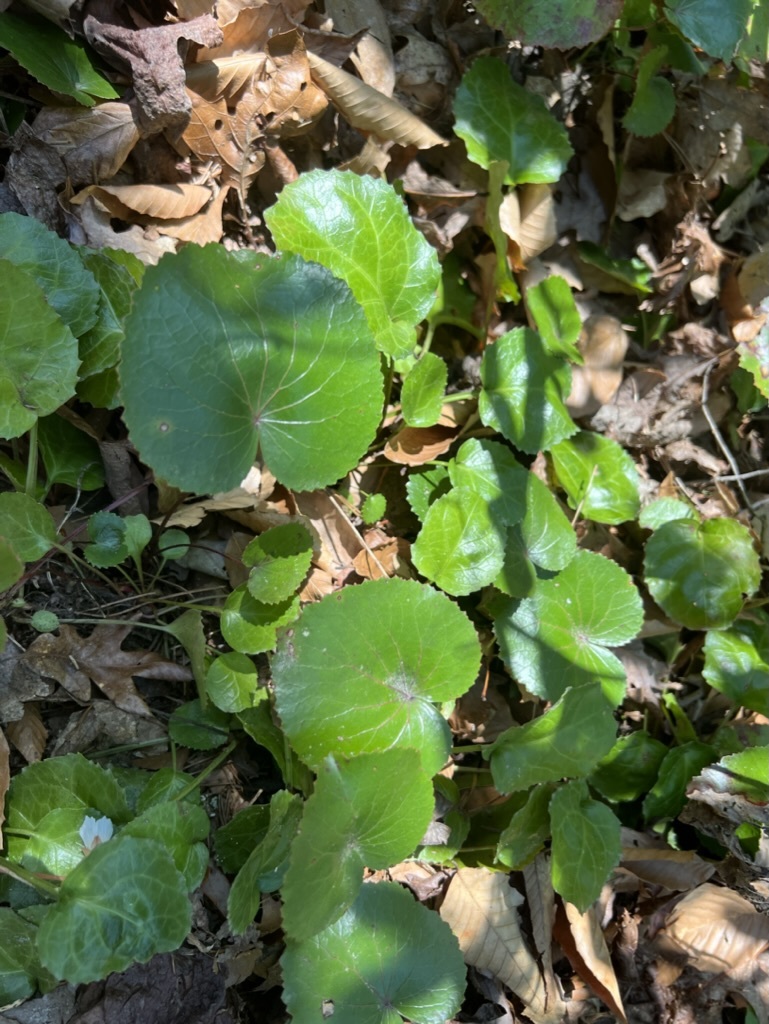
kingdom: Plantae
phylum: Tracheophyta
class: Magnoliopsida
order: Ericales
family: Diapensiaceae
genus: Galax
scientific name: Galax urceolata
